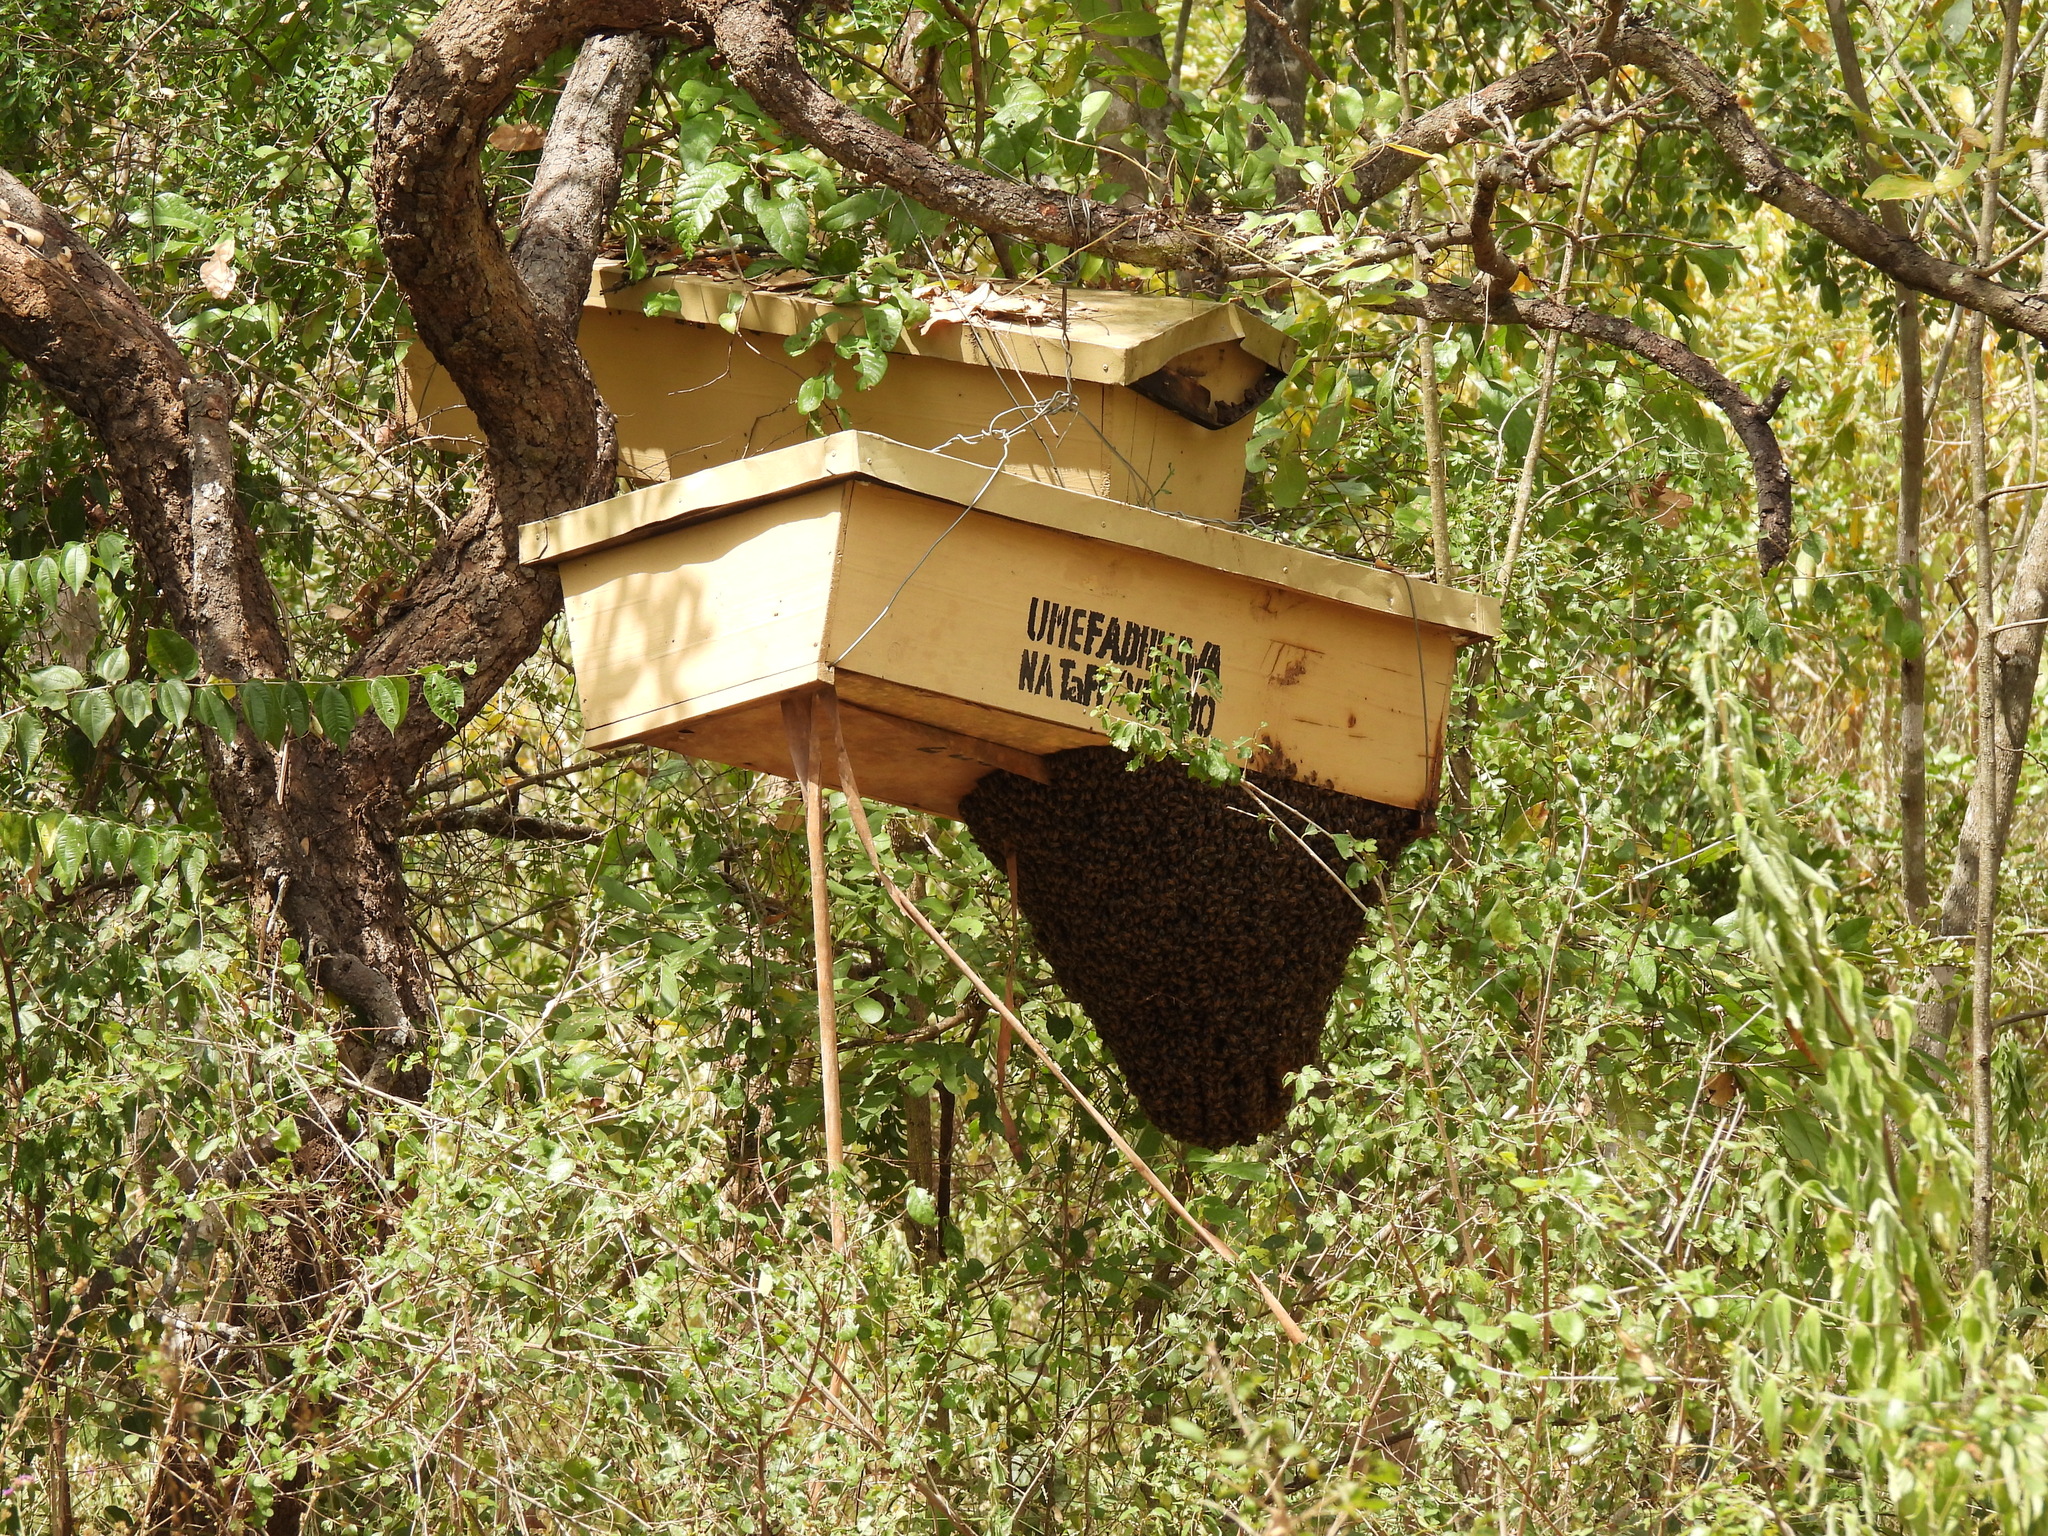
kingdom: Animalia
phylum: Arthropoda
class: Insecta
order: Hymenoptera
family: Apidae
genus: Apis
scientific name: Apis mellifera
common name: Honey bee
